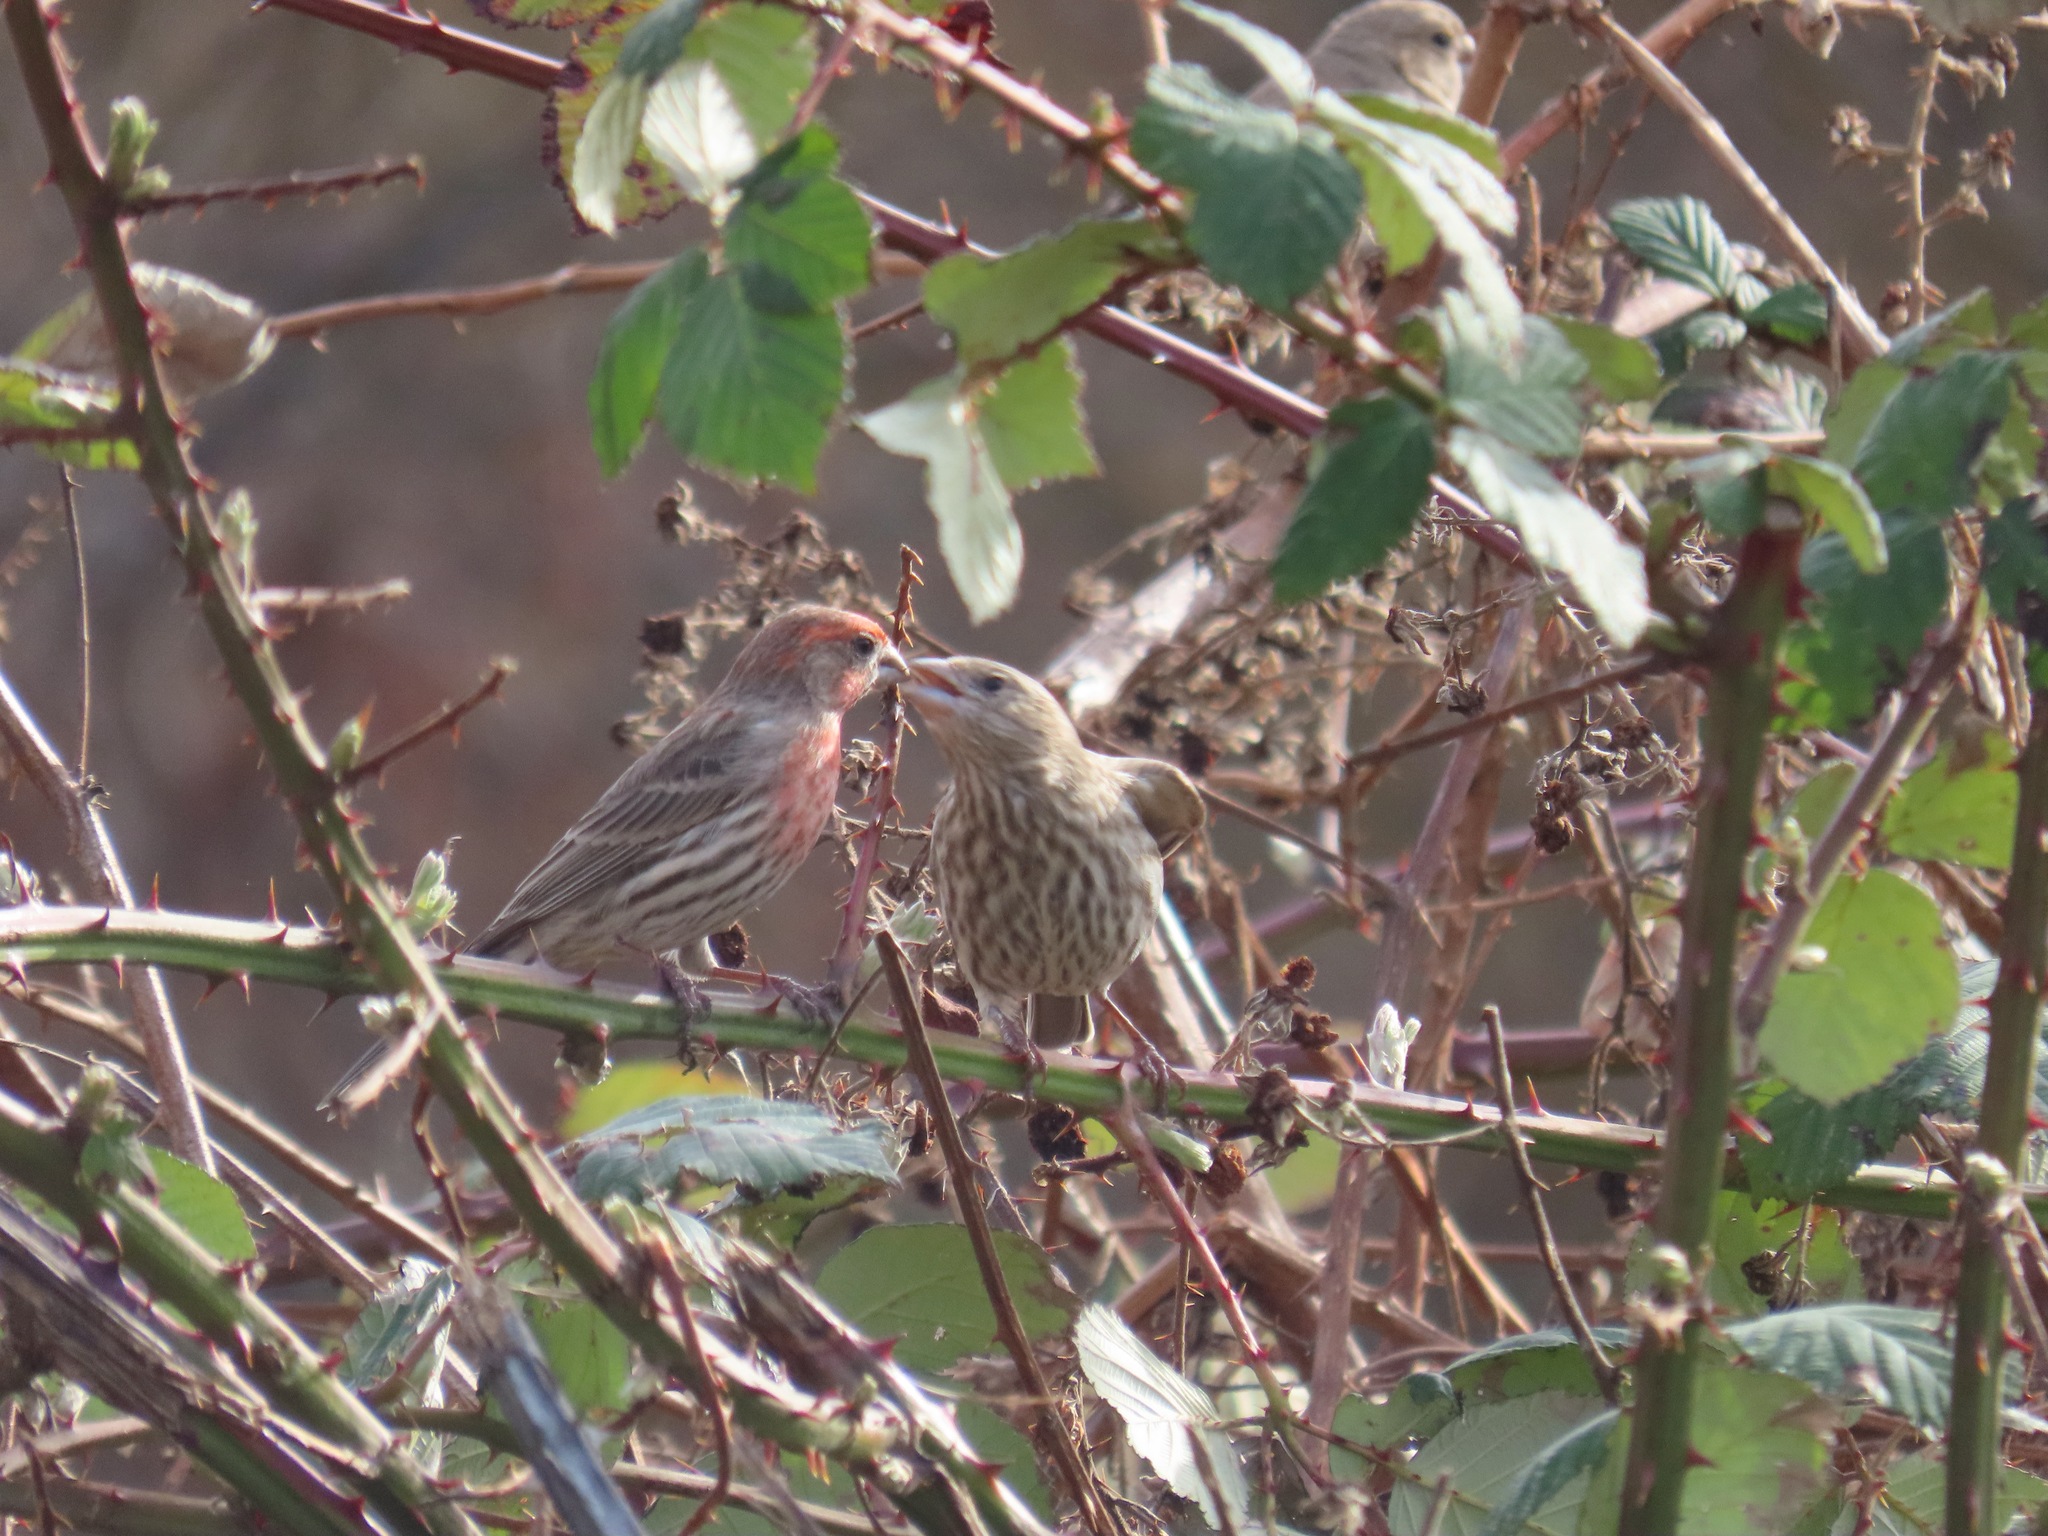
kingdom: Animalia
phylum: Chordata
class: Aves
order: Passeriformes
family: Fringillidae
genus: Haemorhous
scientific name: Haemorhous mexicanus
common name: House finch
